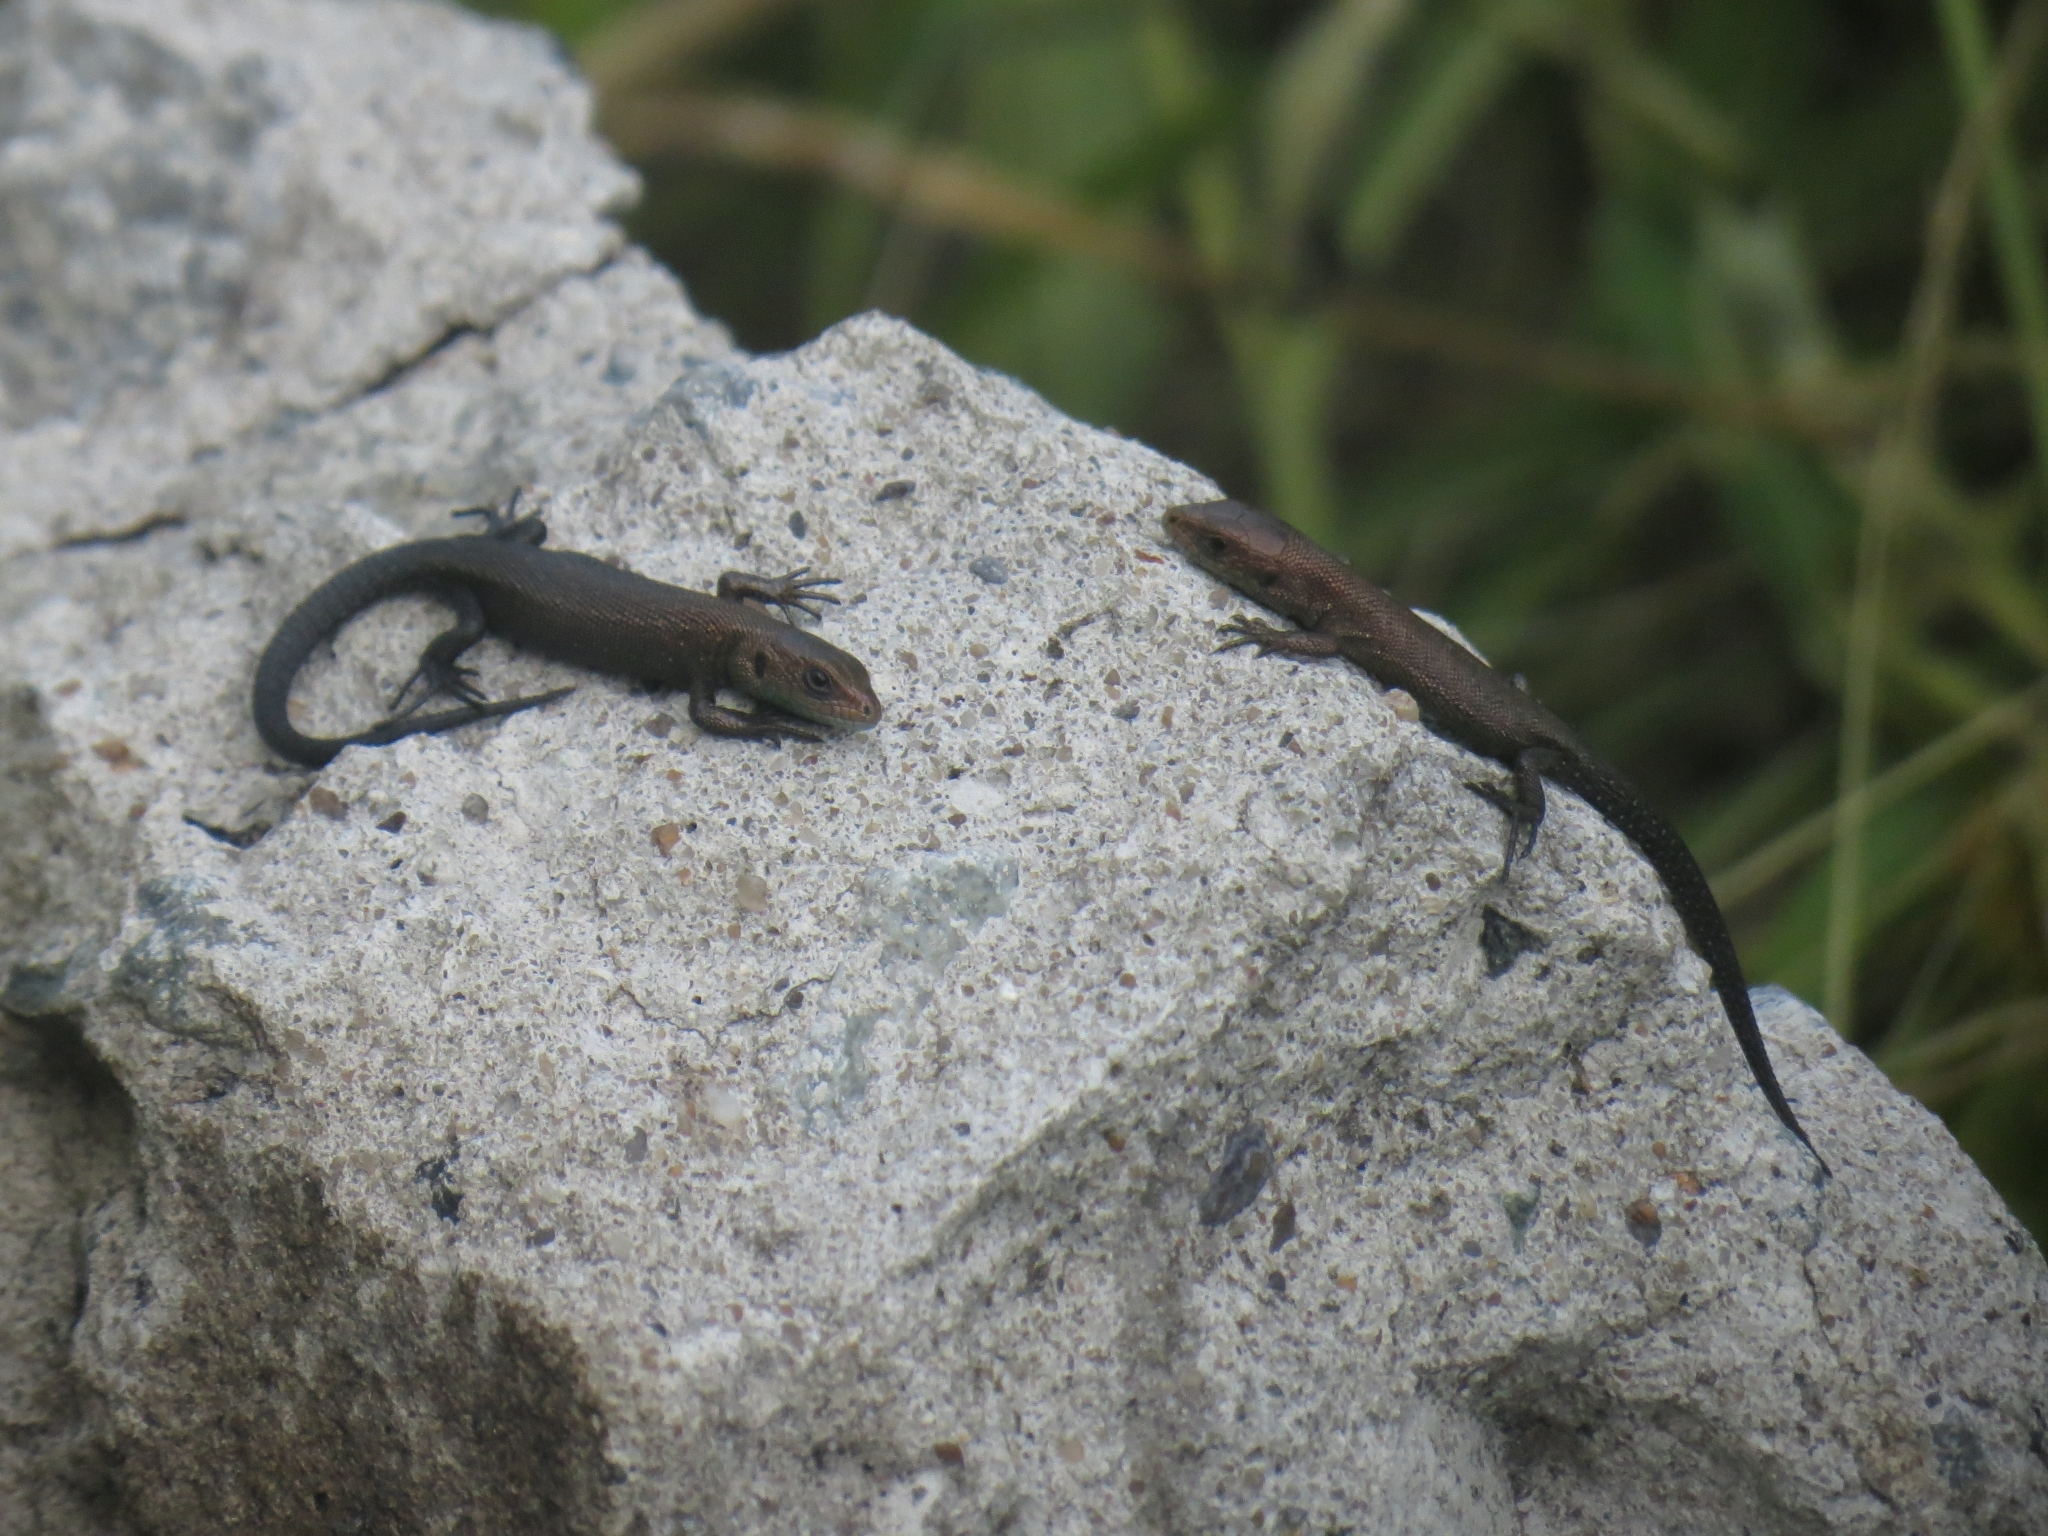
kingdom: Animalia
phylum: Chordata
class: Squamata
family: Lacertidae
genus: Zootoca
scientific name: Zootoca vivipara
